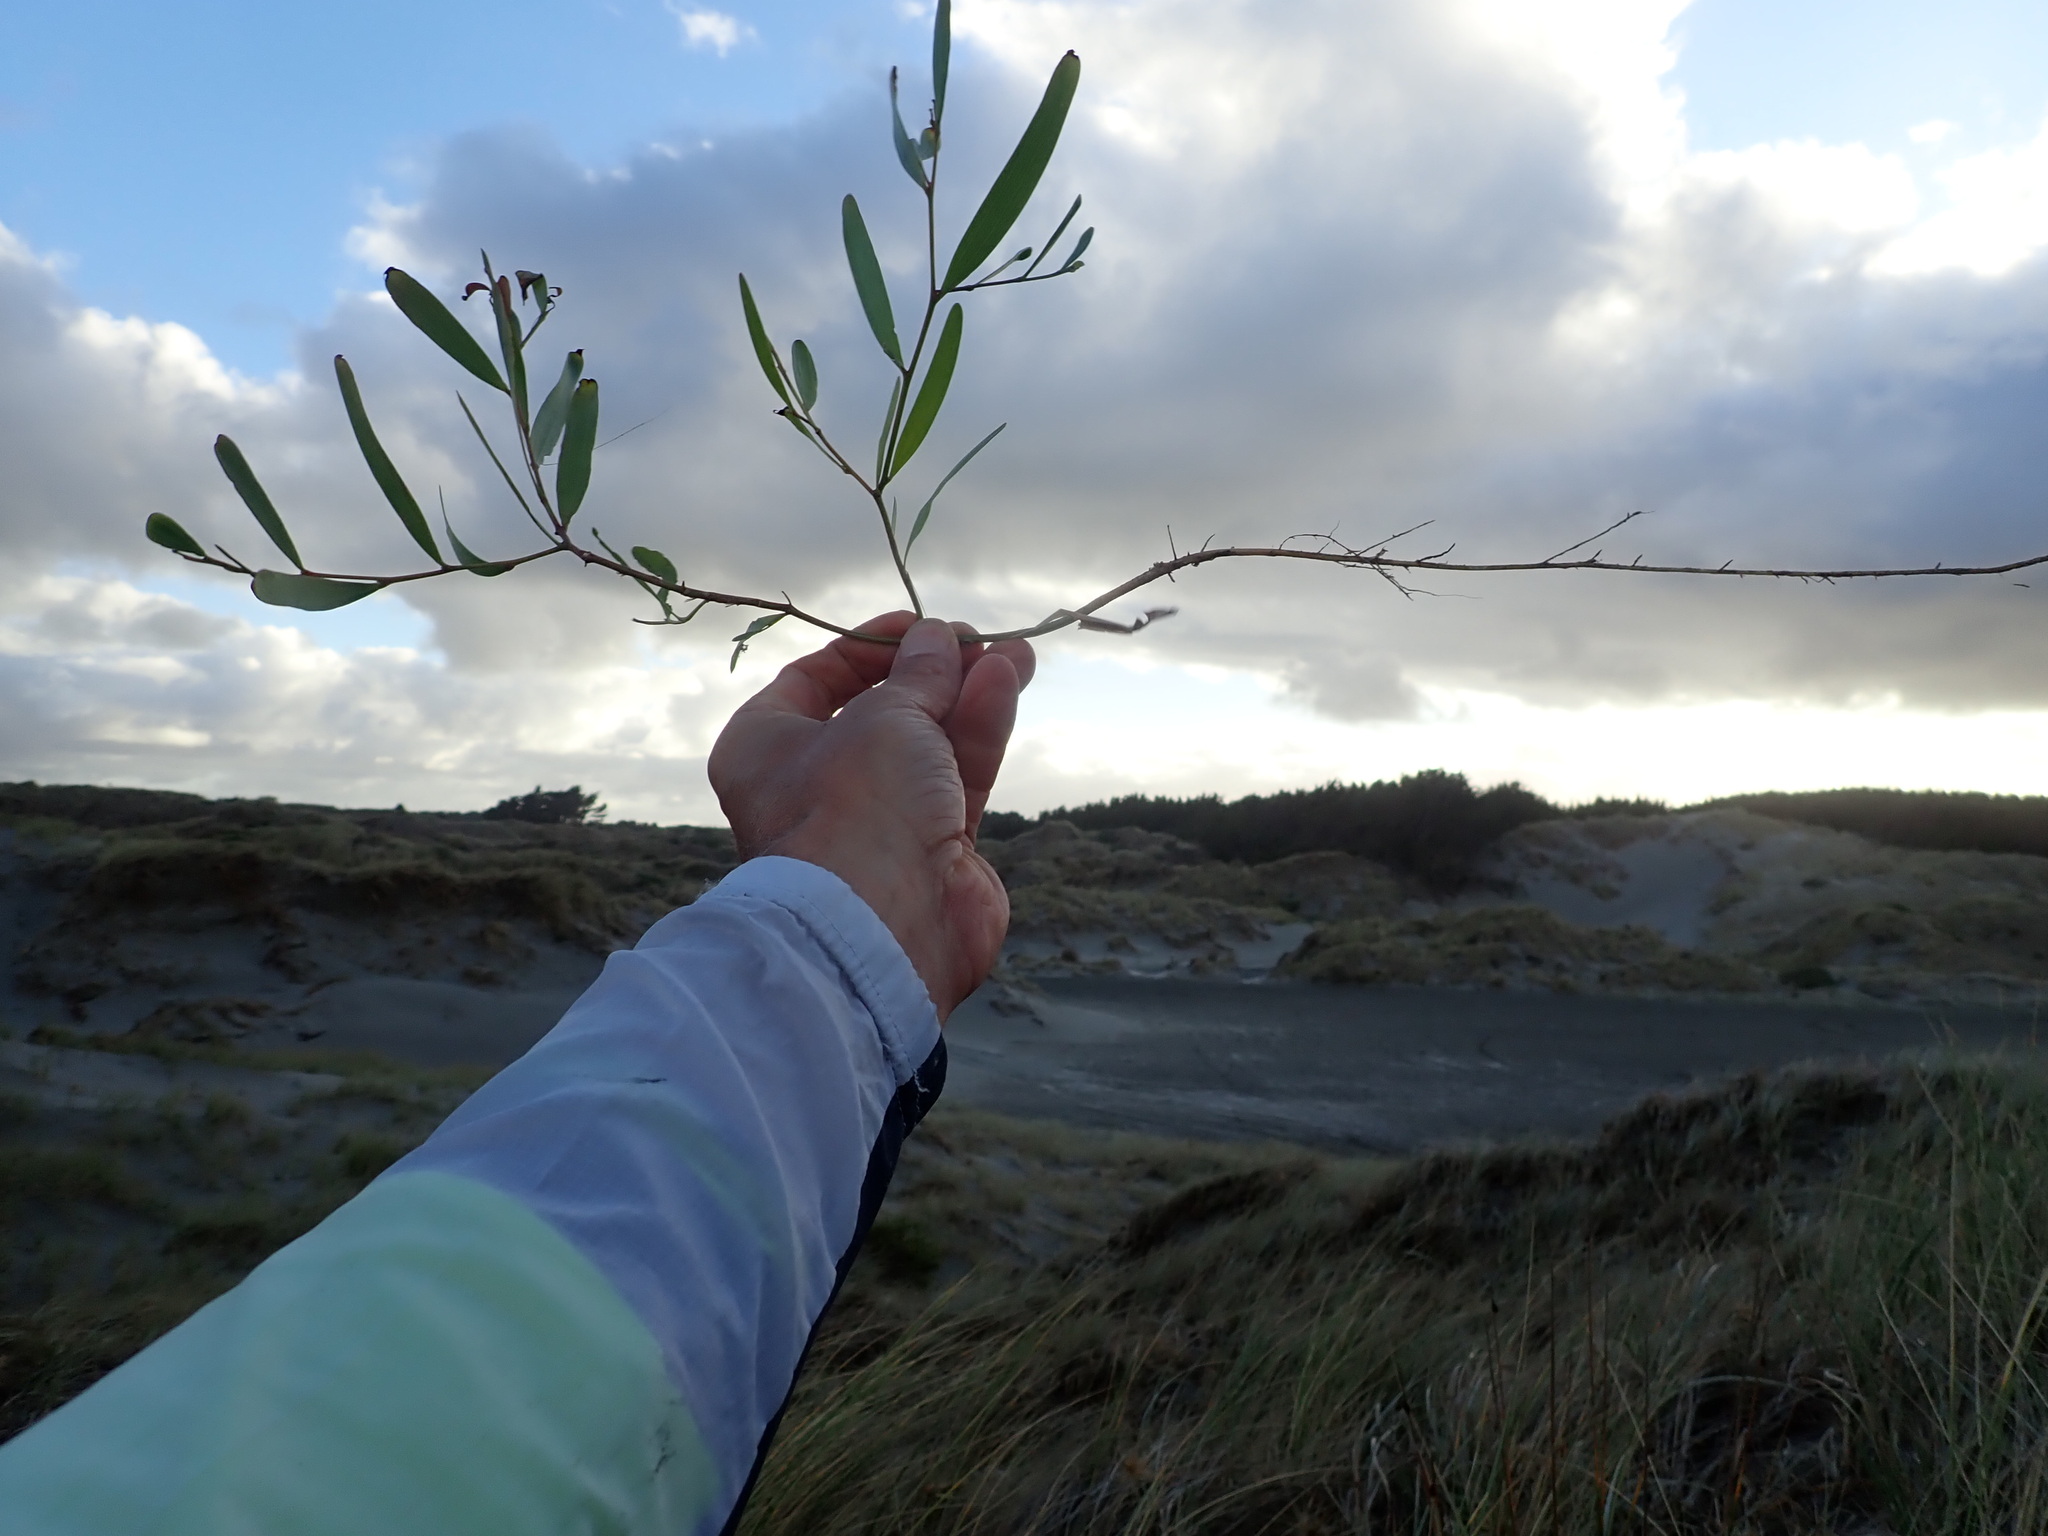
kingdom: Plantae
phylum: Tracheophyta
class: Magnoliopsida
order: Fabales
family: Fabaceae
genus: Acacia
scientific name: Acacia longifolia
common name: Sydney golden wattle
